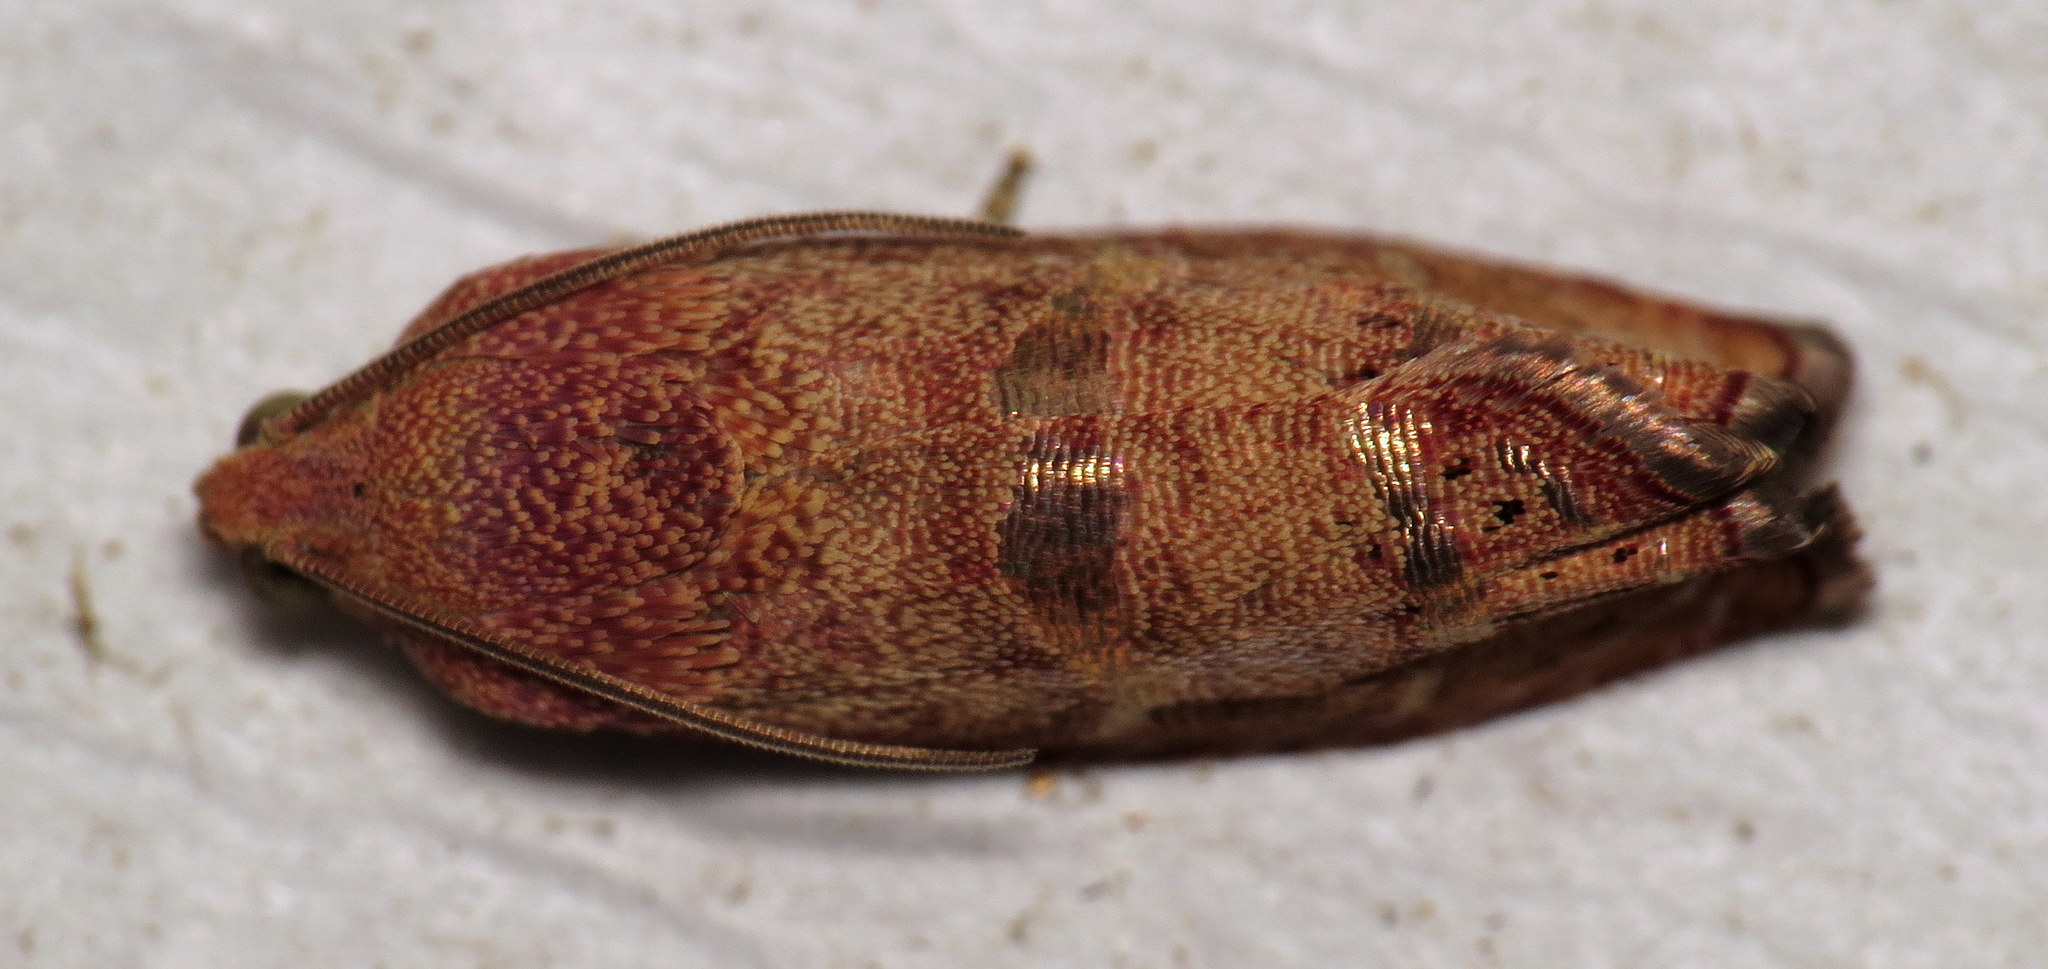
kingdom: Animalia
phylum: Arthropoda
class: Insecta
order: Lepidoptera
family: Tortricidae
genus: Cydia
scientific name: Cydia latiferreana
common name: Filbertworm moth
